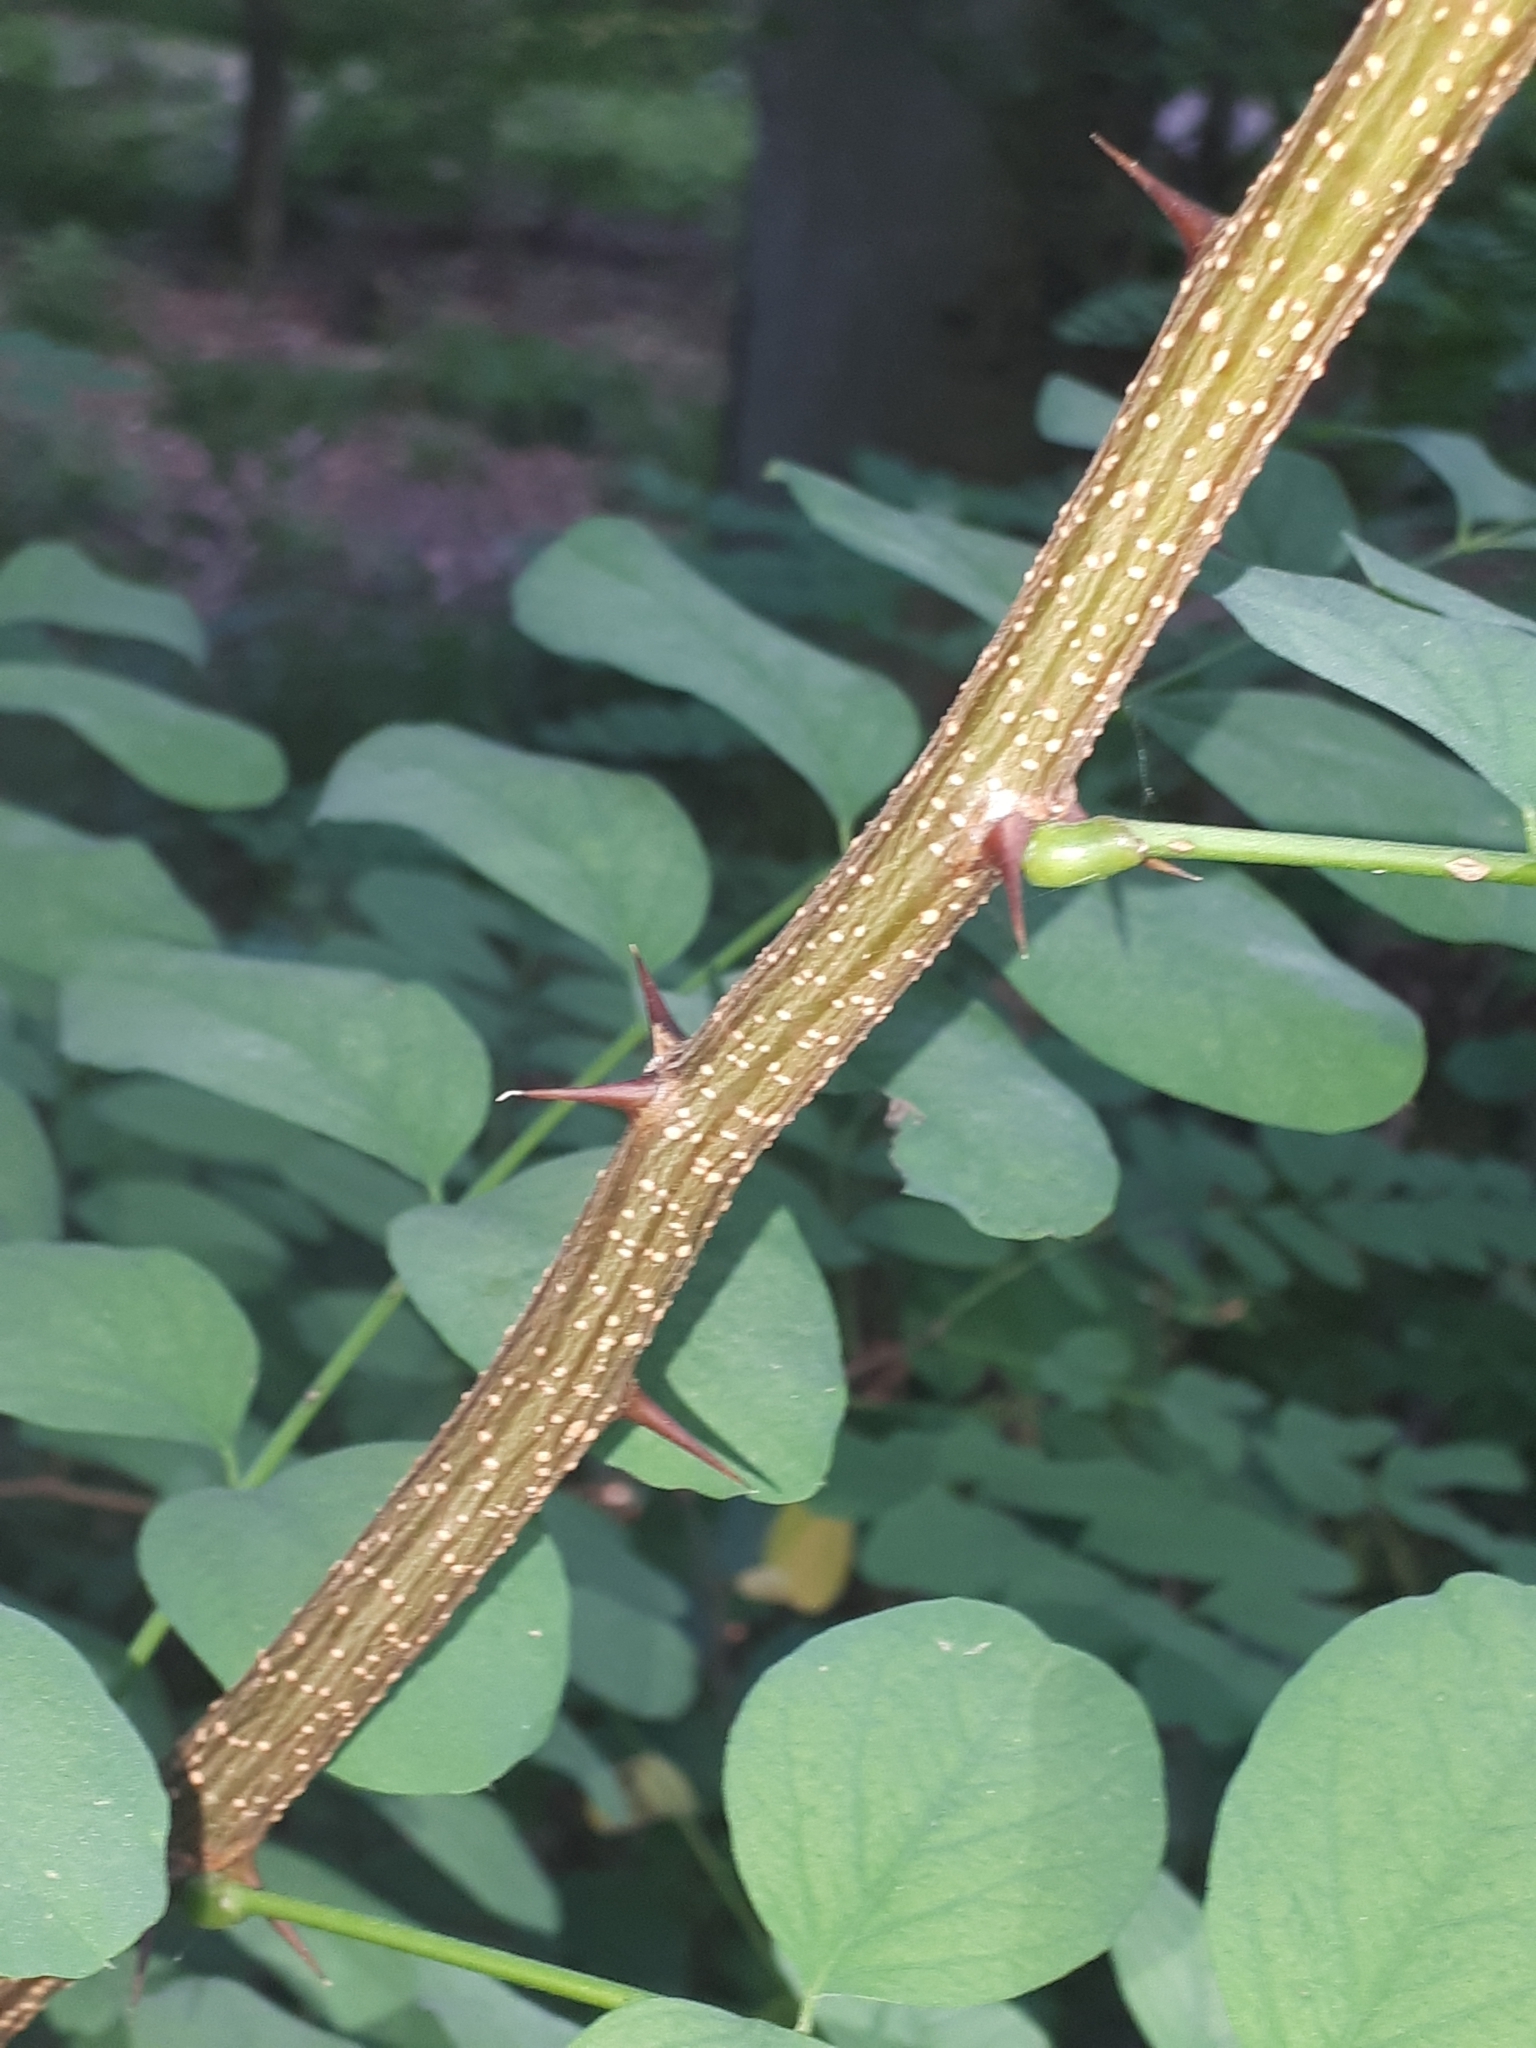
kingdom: Plantae
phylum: Tracheophyta
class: Magnoliopsida
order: Fabales
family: Fabaceae
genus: Robinia
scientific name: Robinia pseudoacacia
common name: Black locust
